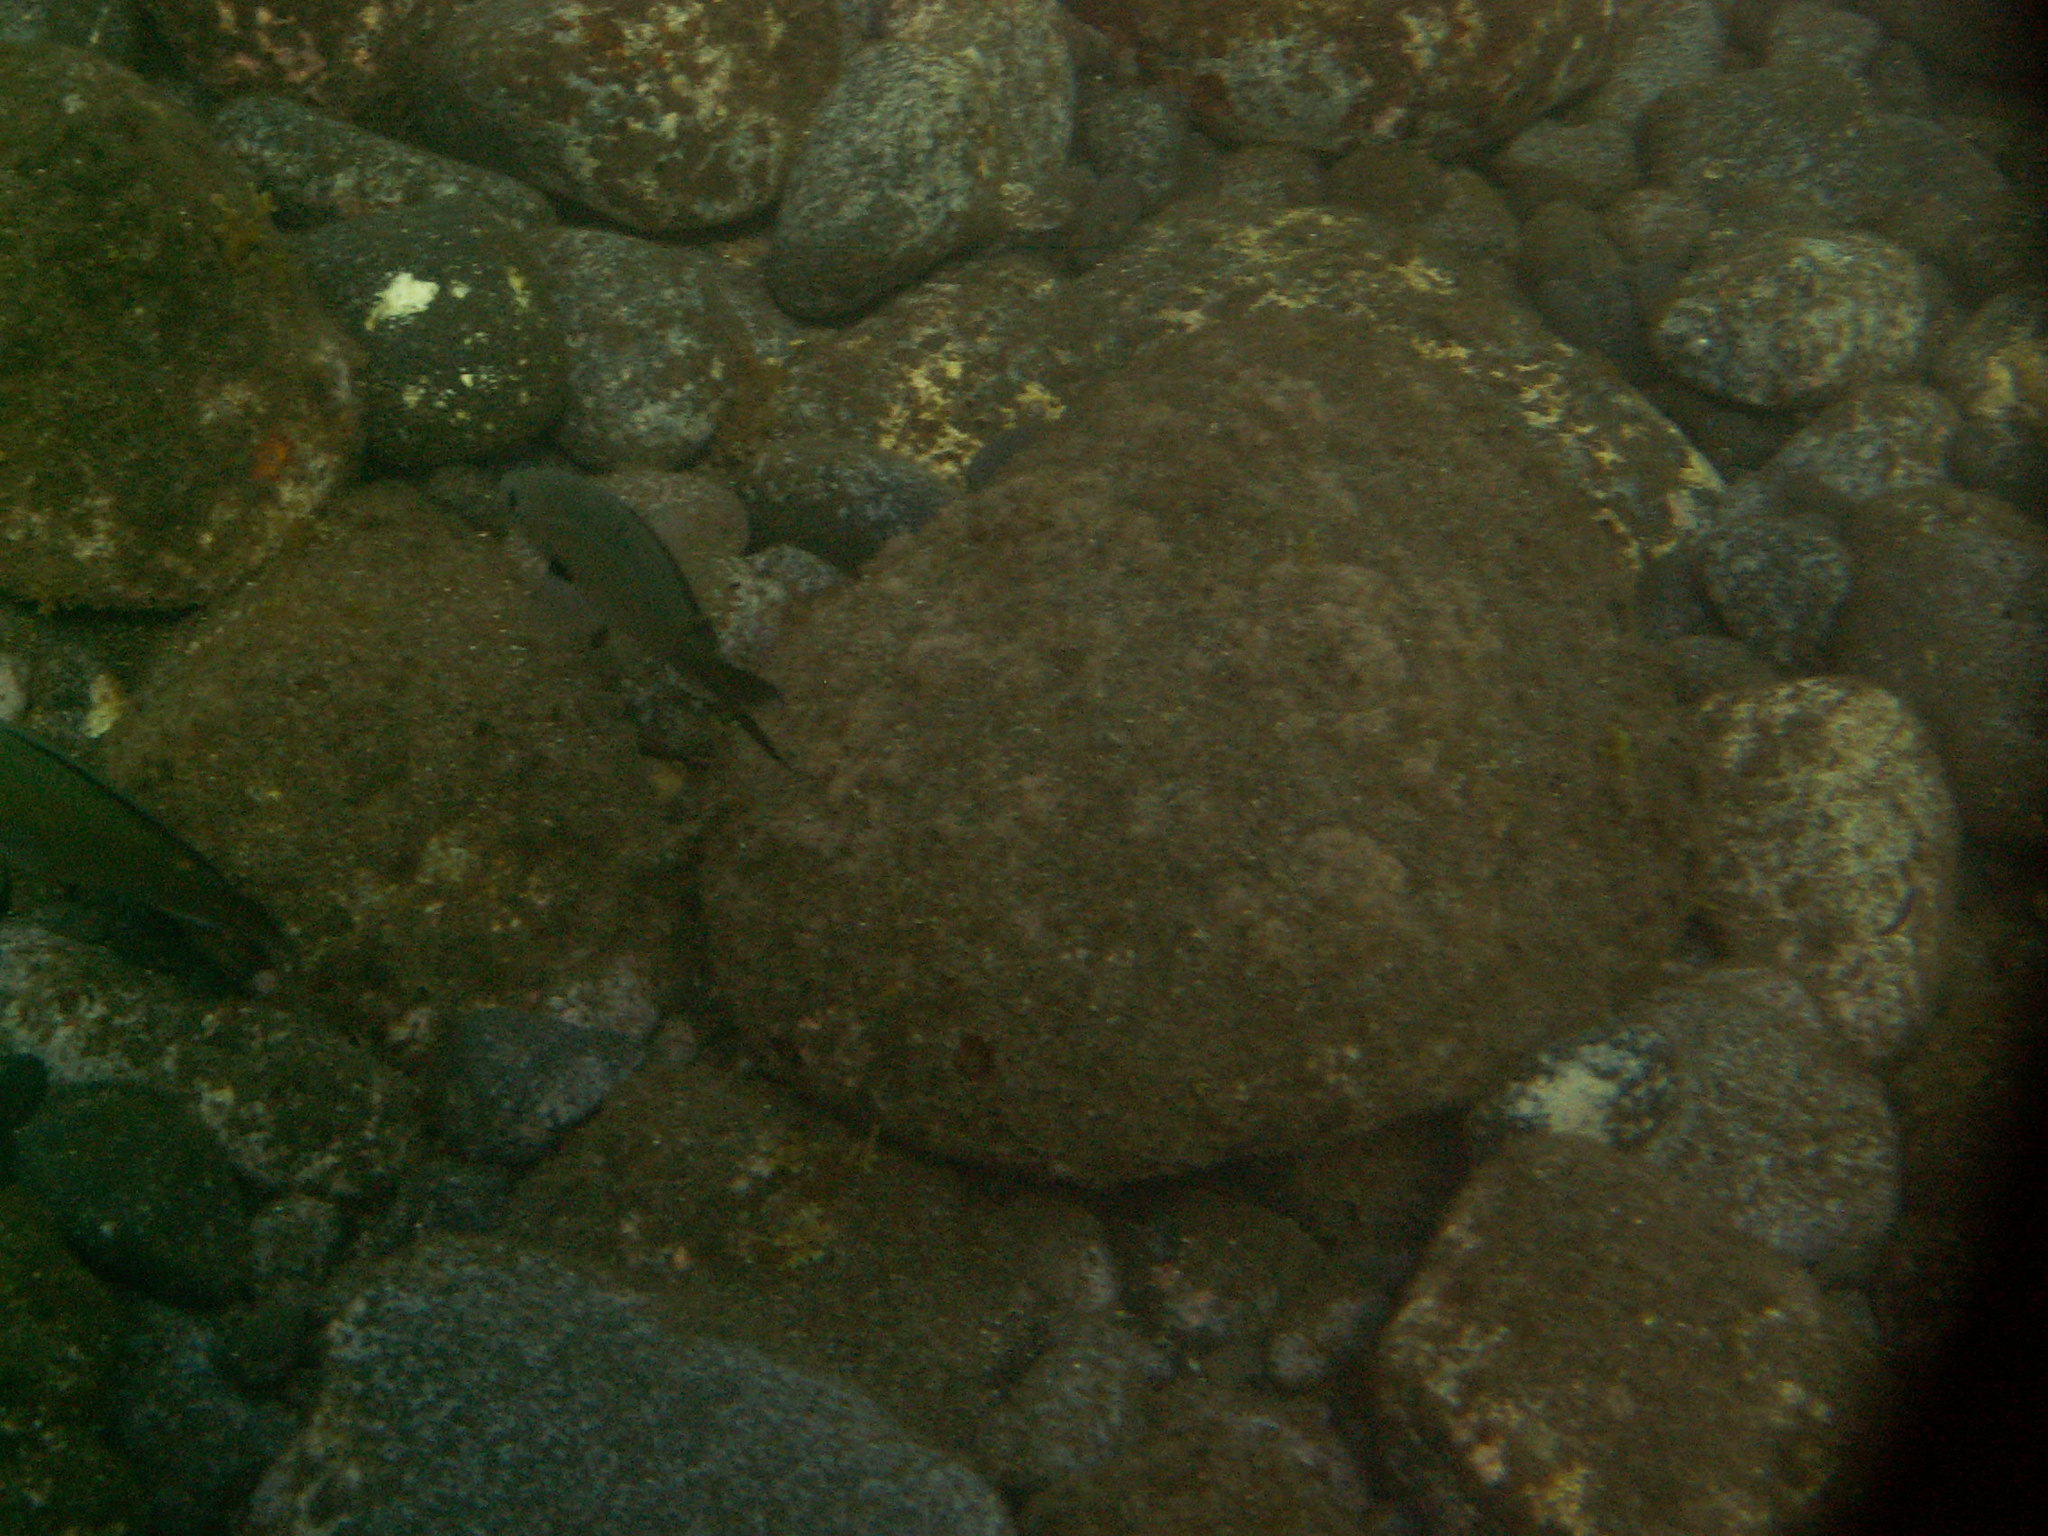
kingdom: Animalia
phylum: Chordata
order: Perciformes
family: Pomacentridae
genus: Chromis
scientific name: Chromis multilineata
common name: Brown chromis
